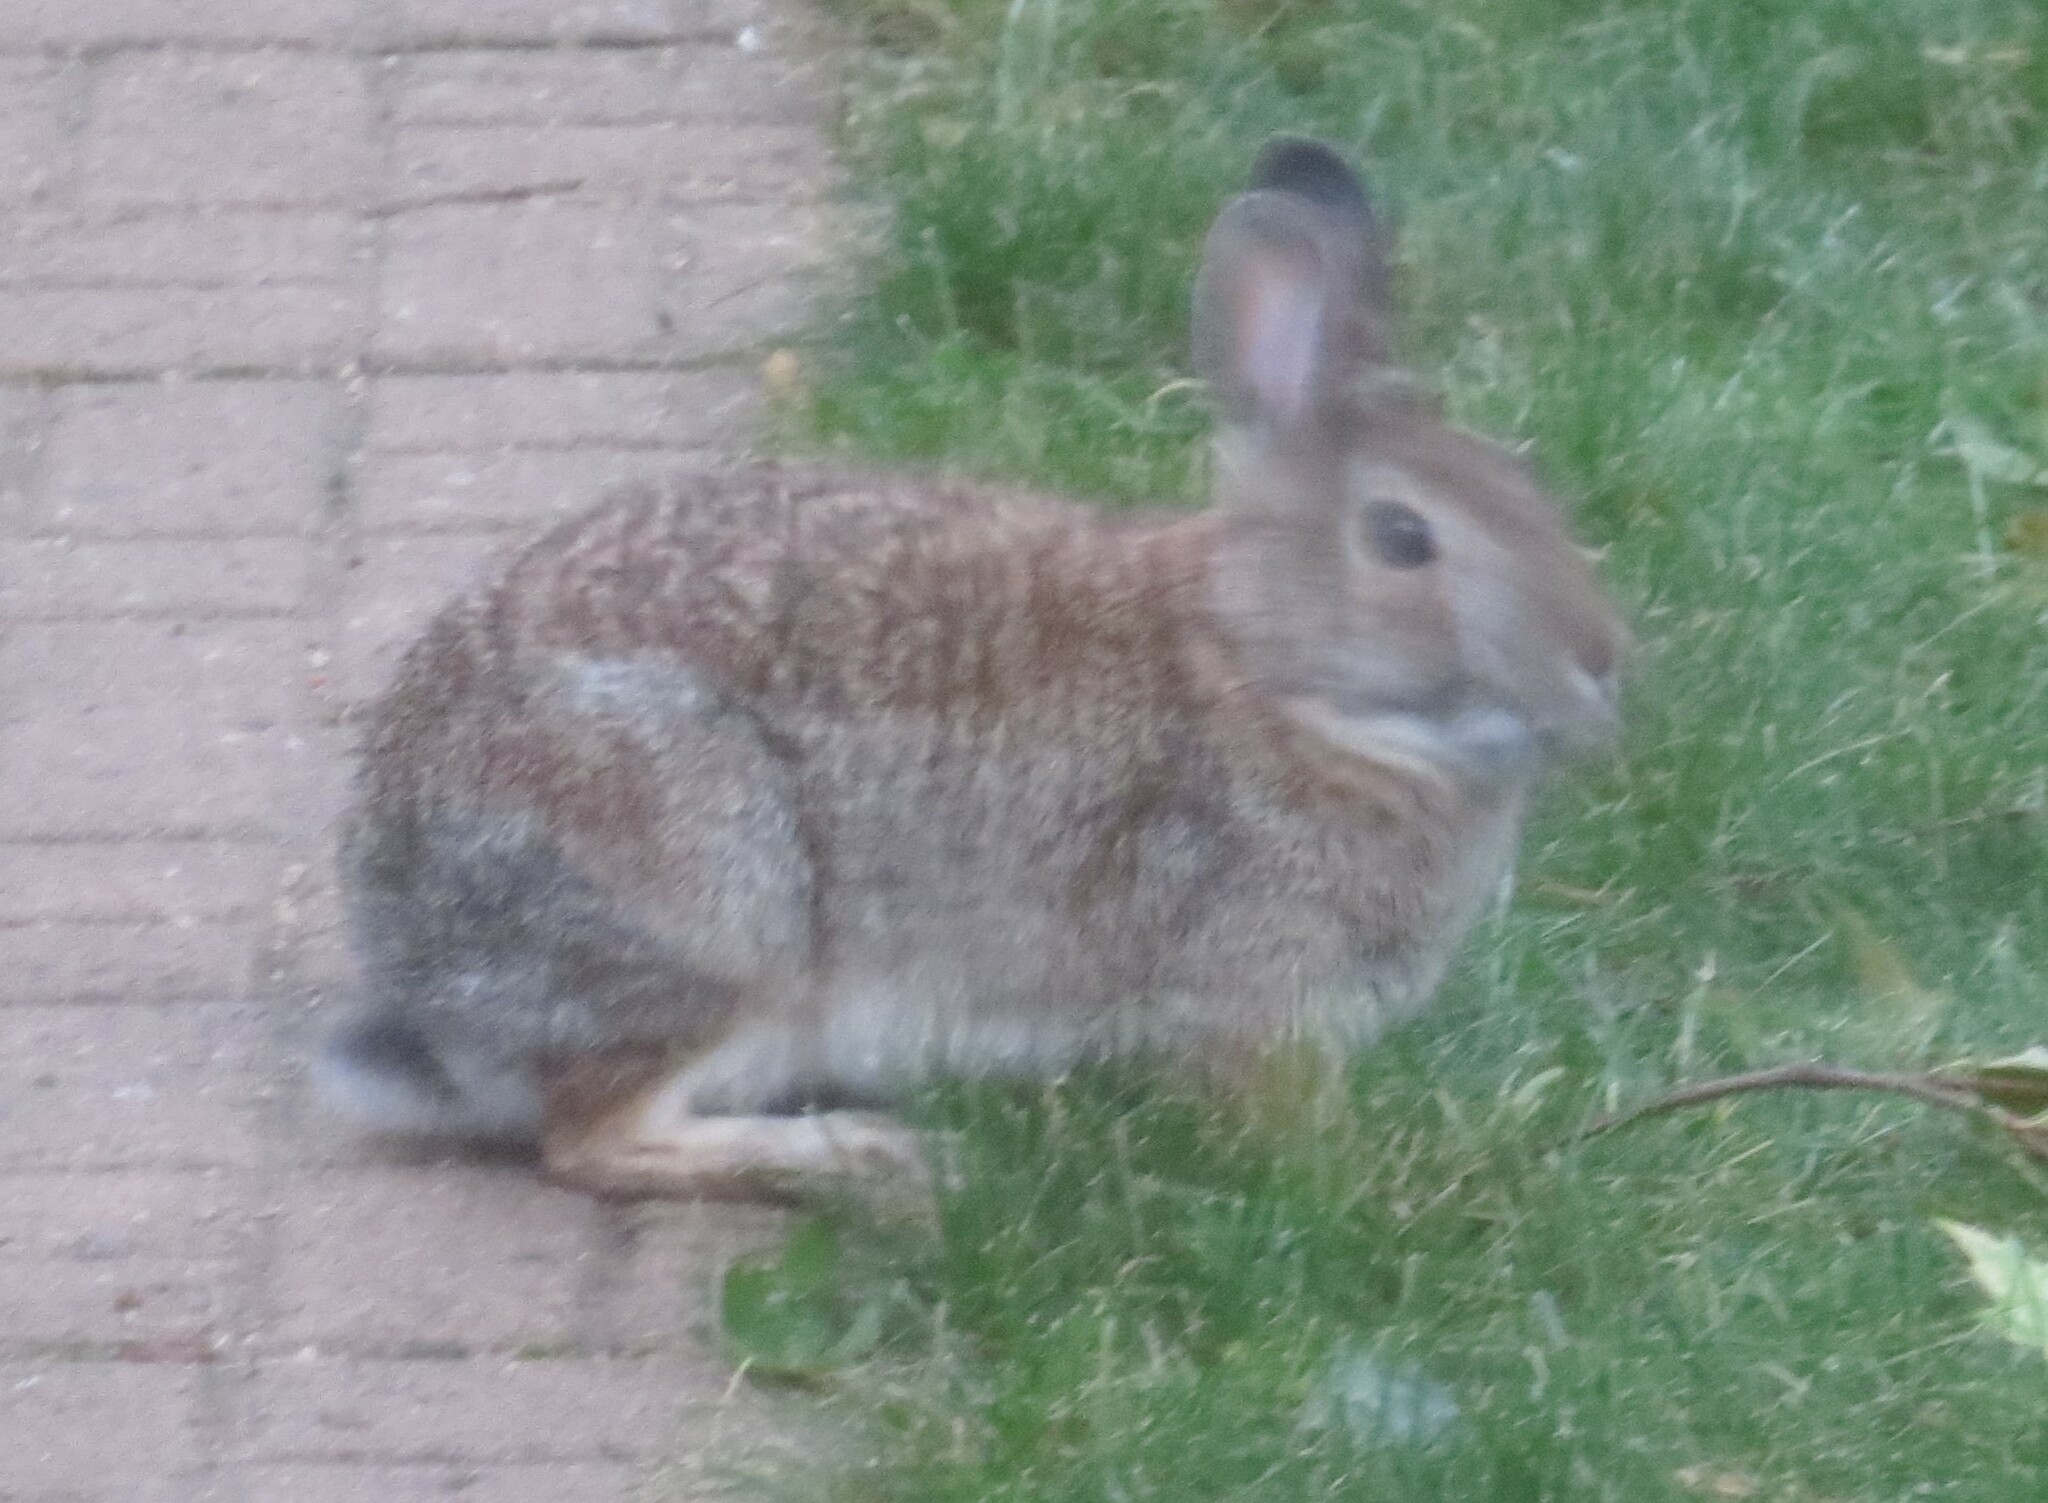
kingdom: Animalia
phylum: Chordata
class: Mammalia
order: Lagomorpha
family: Leporidae
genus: Sylvilagus
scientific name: Sylvilagus floridanus
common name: Eastern cottontail
